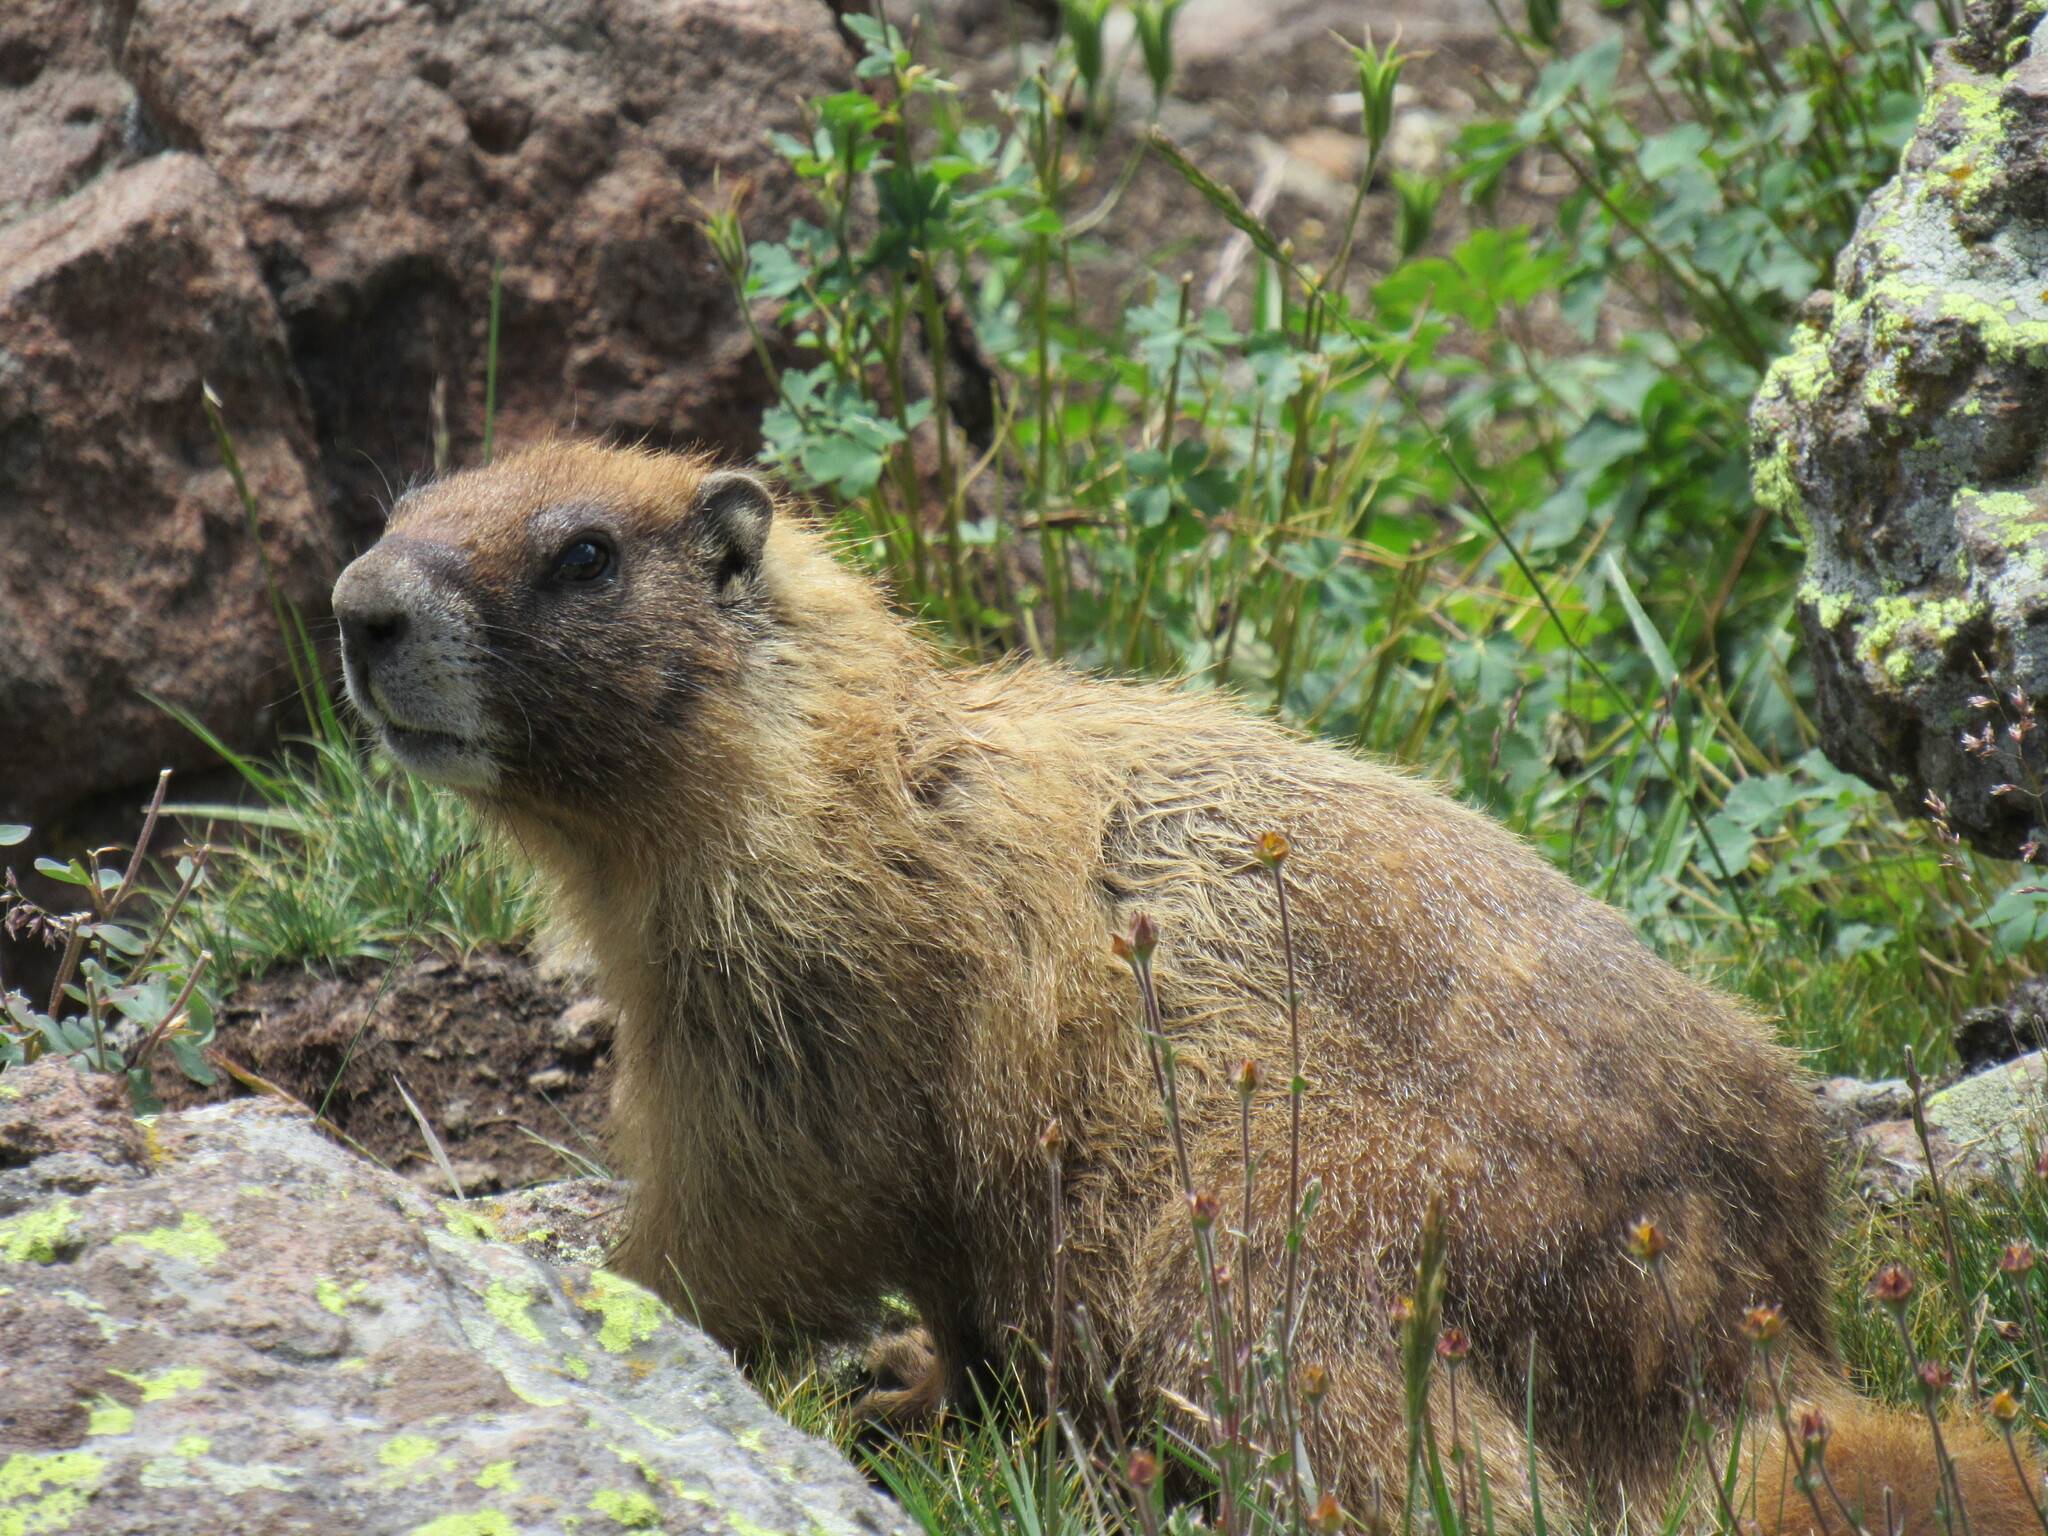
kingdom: Animalia
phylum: Chordata
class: Mammalia
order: Rodentia
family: Sciuridae
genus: Marmota
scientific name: Marmota flaviventris
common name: Yellow-bellied marmot
